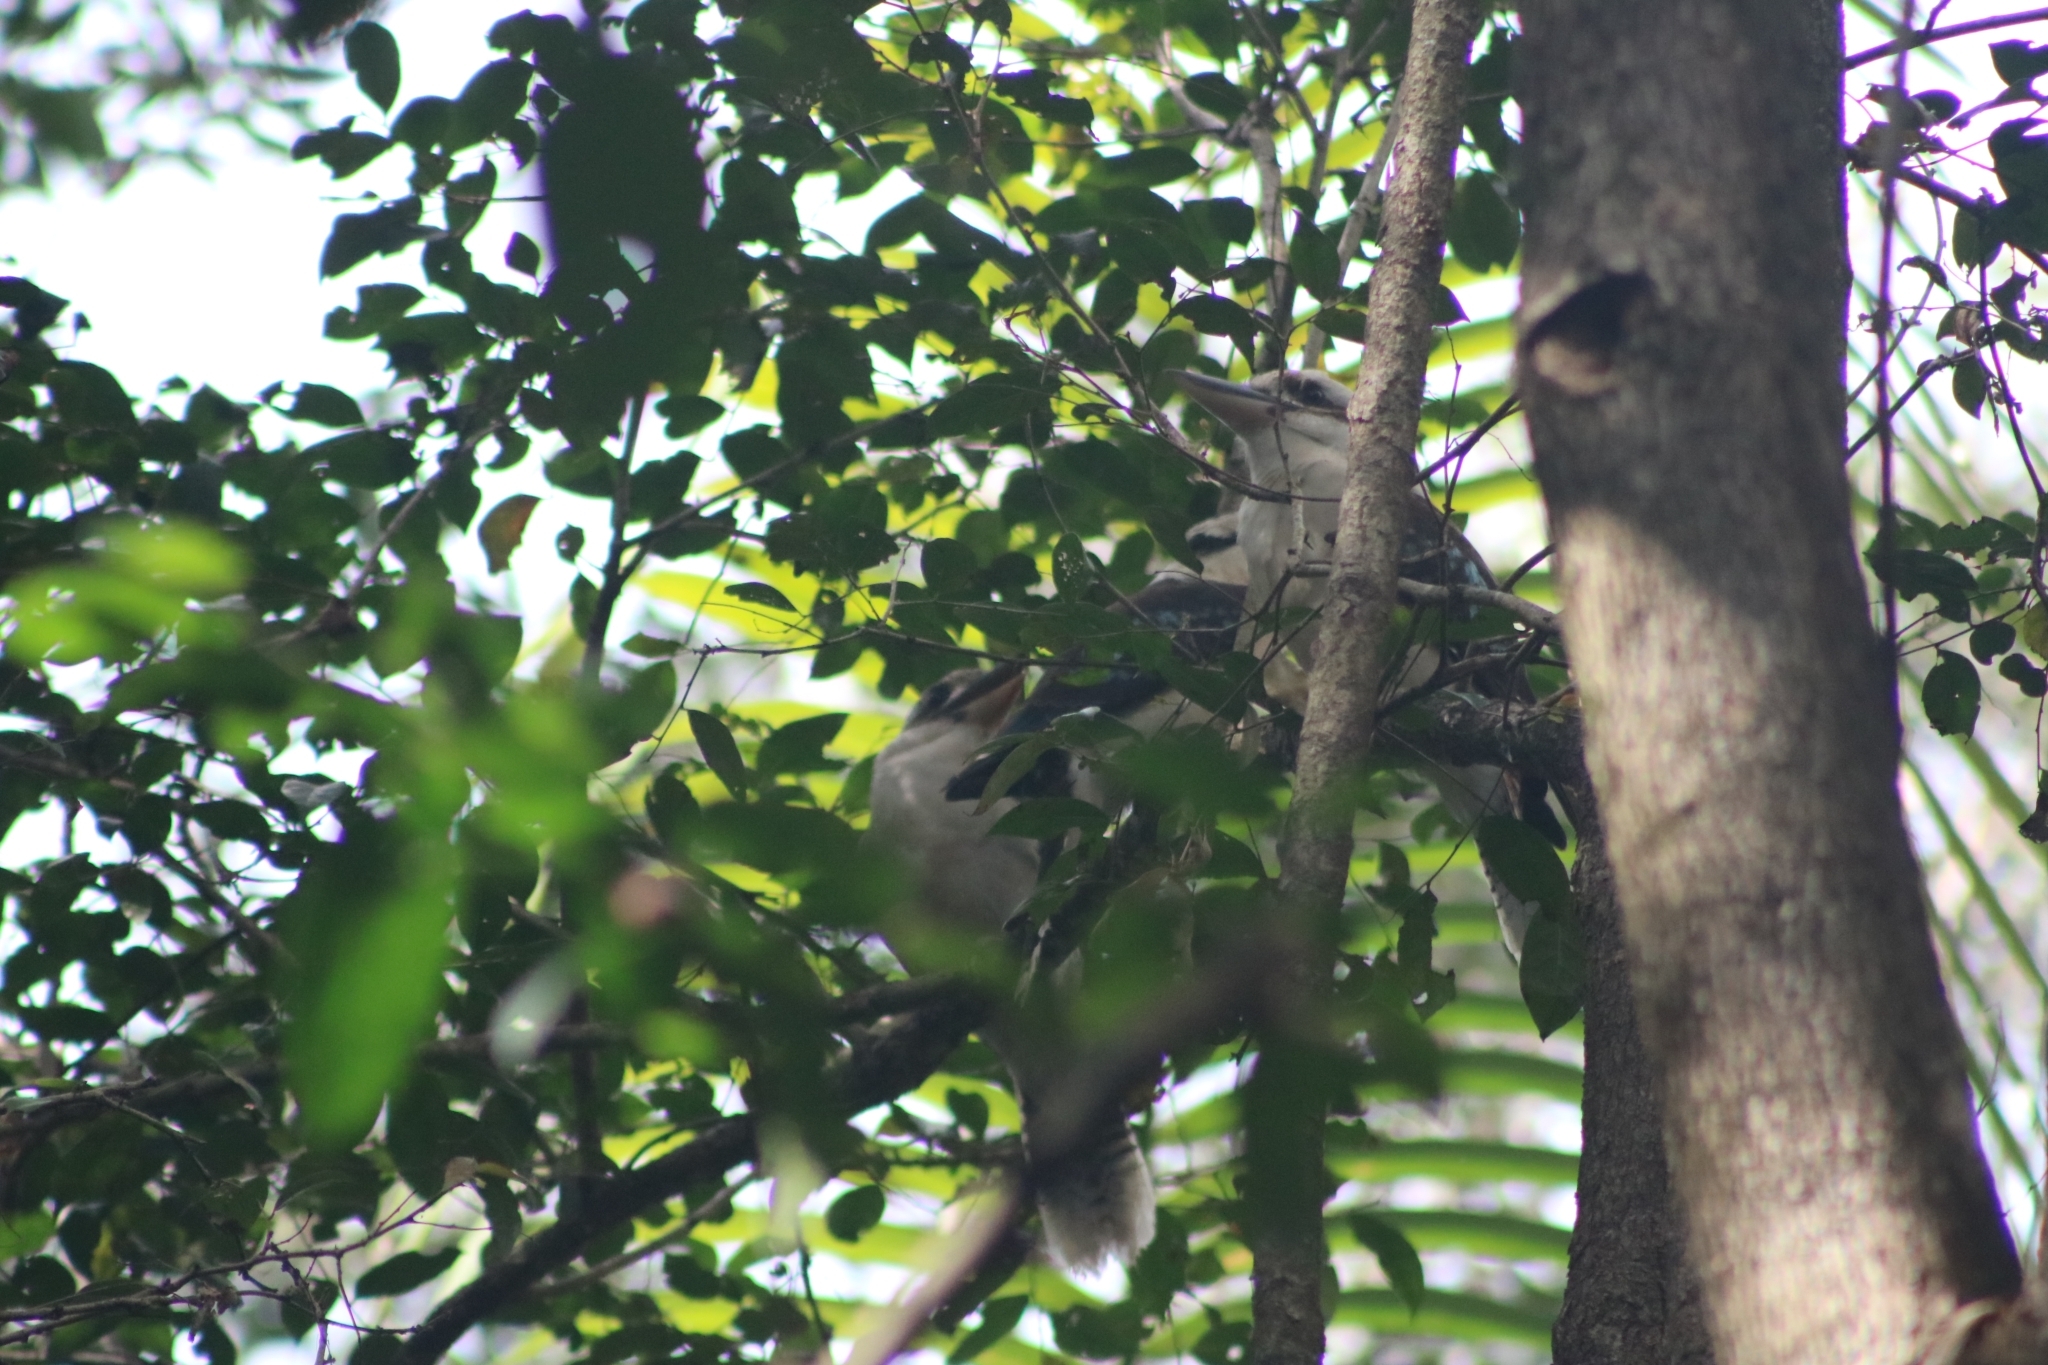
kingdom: Animalia
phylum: Chordata
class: Aves
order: Coraciiformes
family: Alcedinidae
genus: Dacelo
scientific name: Dacelo novaeguineae
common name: Laughing kookaburra
